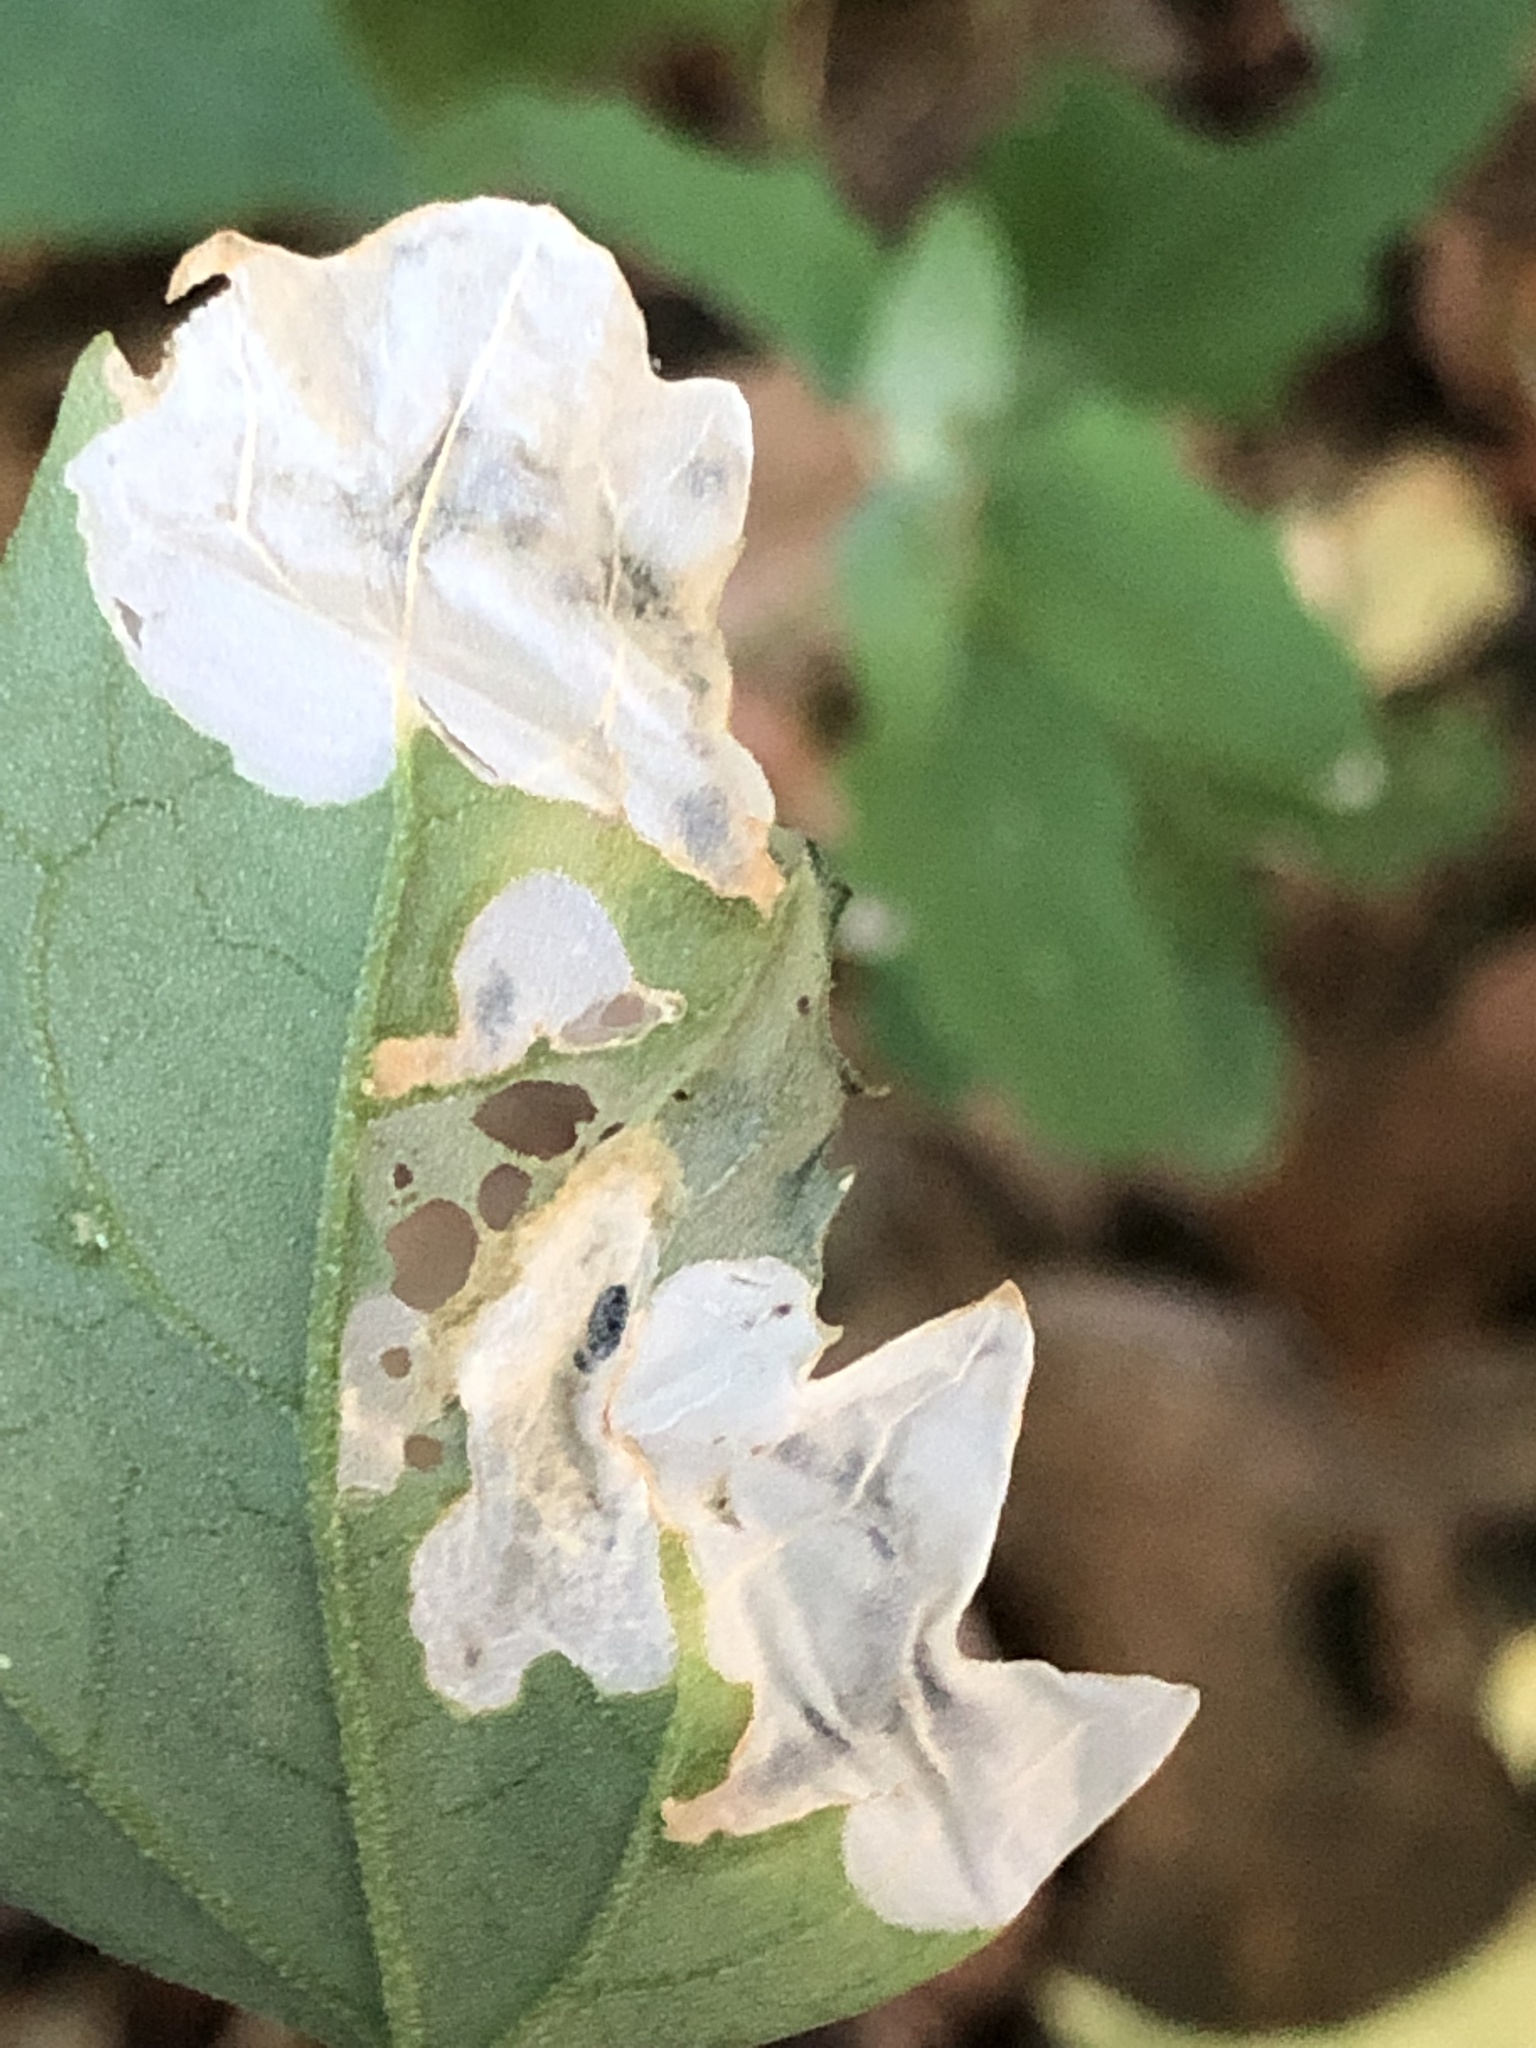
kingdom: Animalia
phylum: Arthropoda
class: Insecta
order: Lepidoptera
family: Gelechiidae
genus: Chrysoesthia
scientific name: Chrysoesthia sexguttella
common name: Moth
